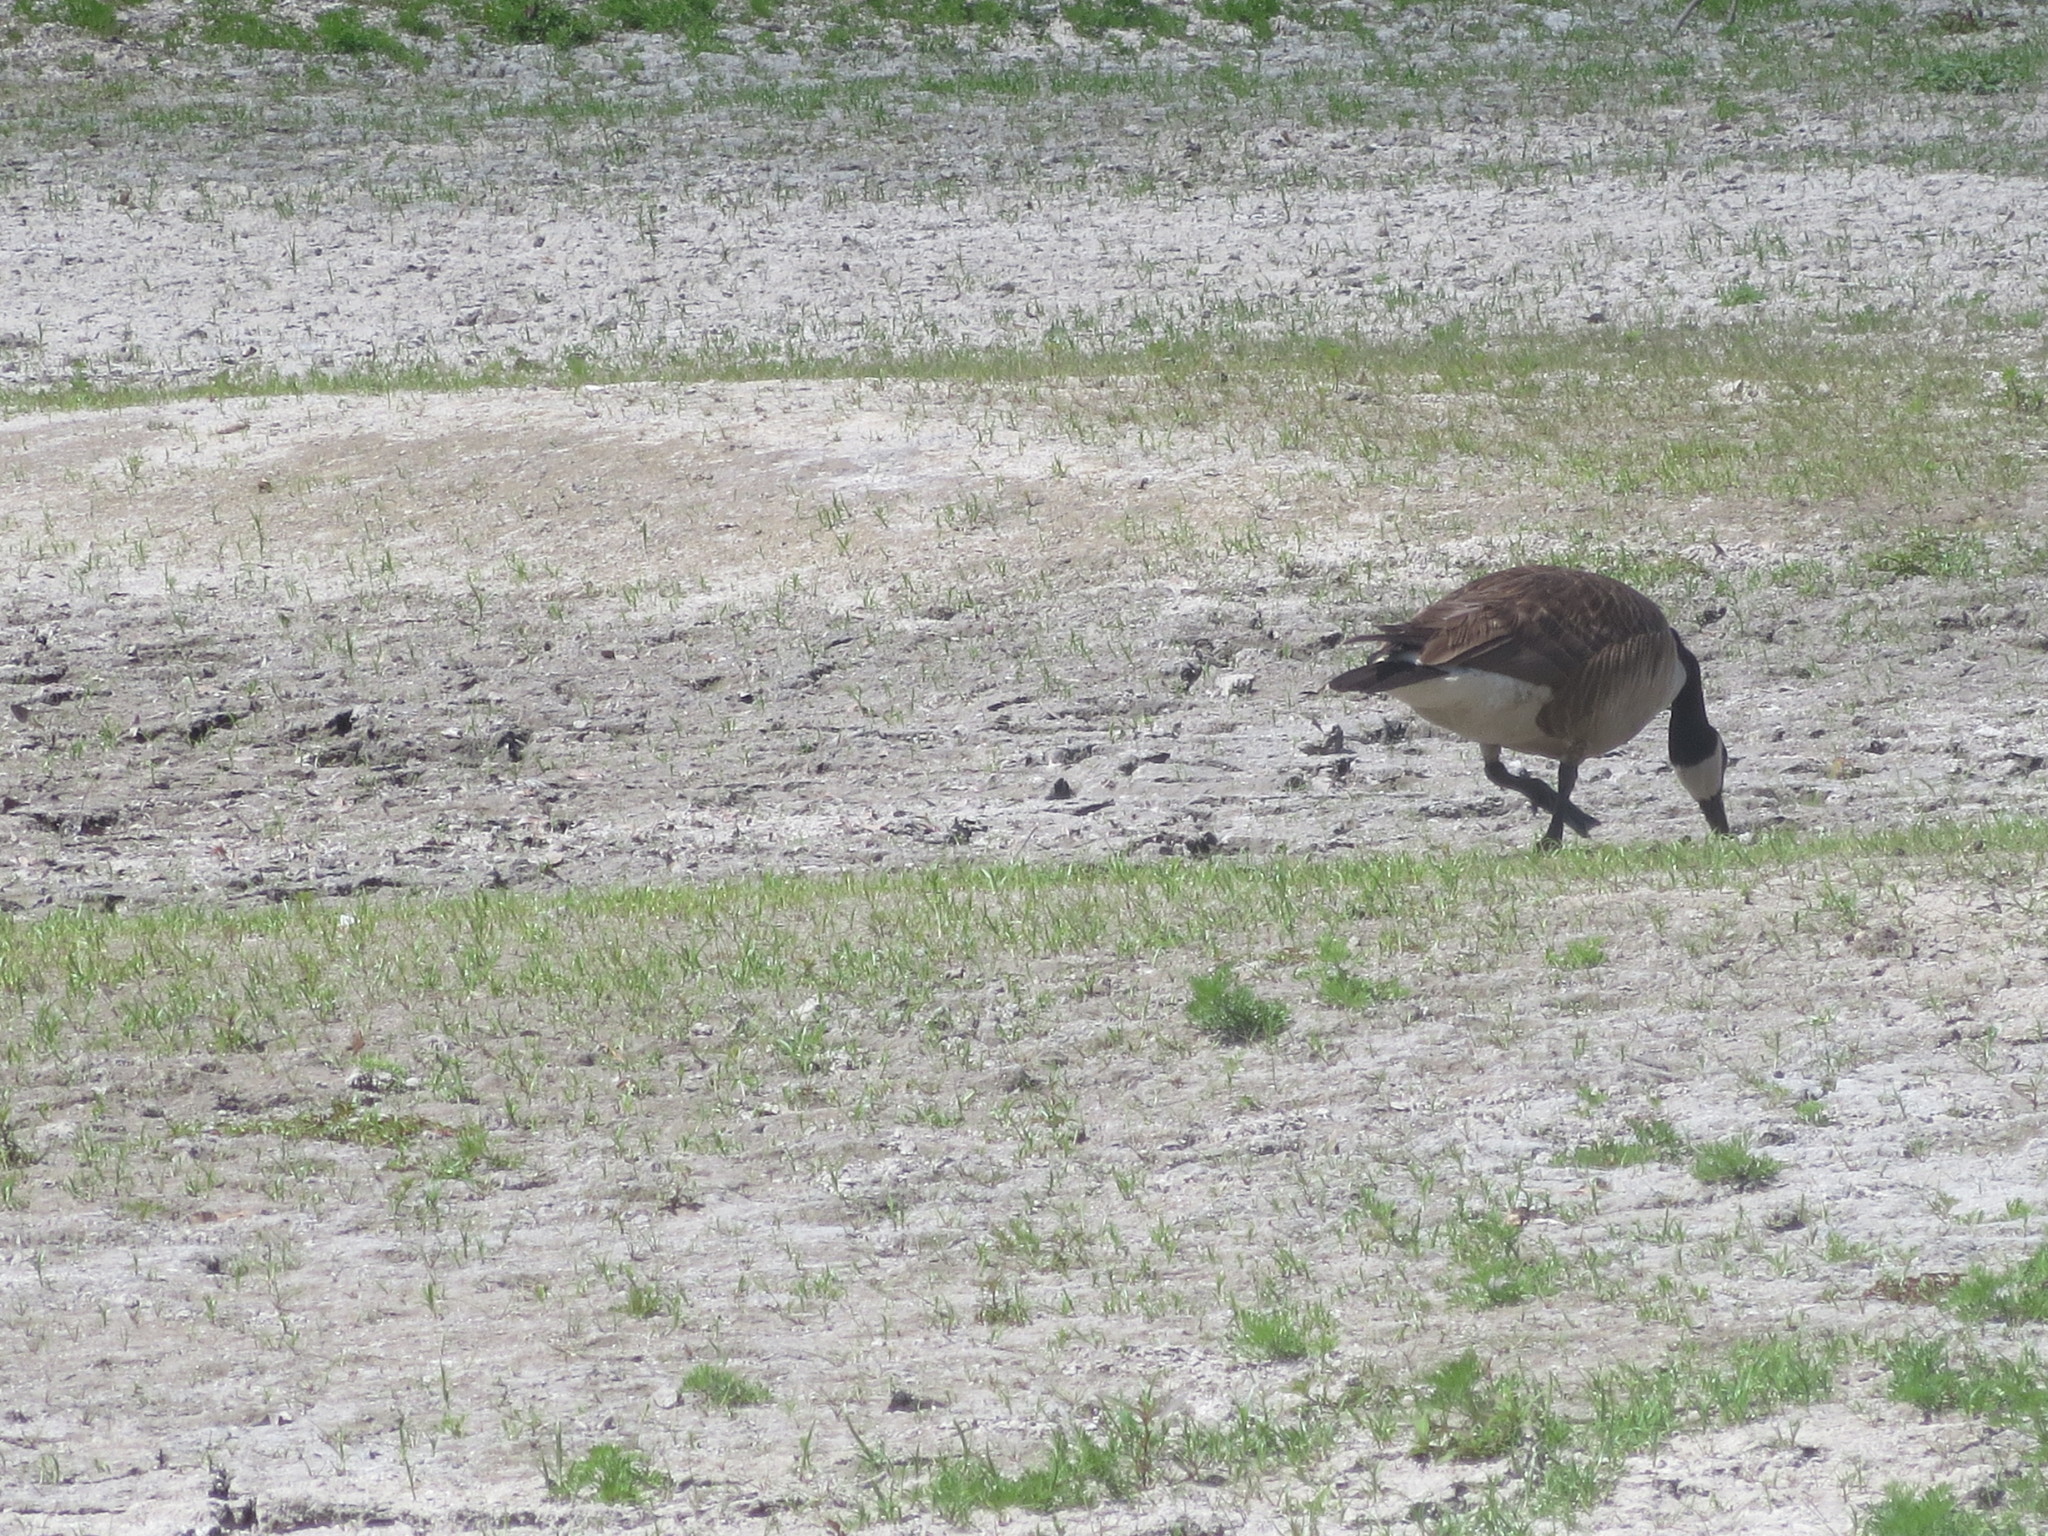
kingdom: Animalia
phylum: Chordata
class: Aves
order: Anseriformes
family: Anatidae
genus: Branta
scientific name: Branta canadensis
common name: Canada goose
